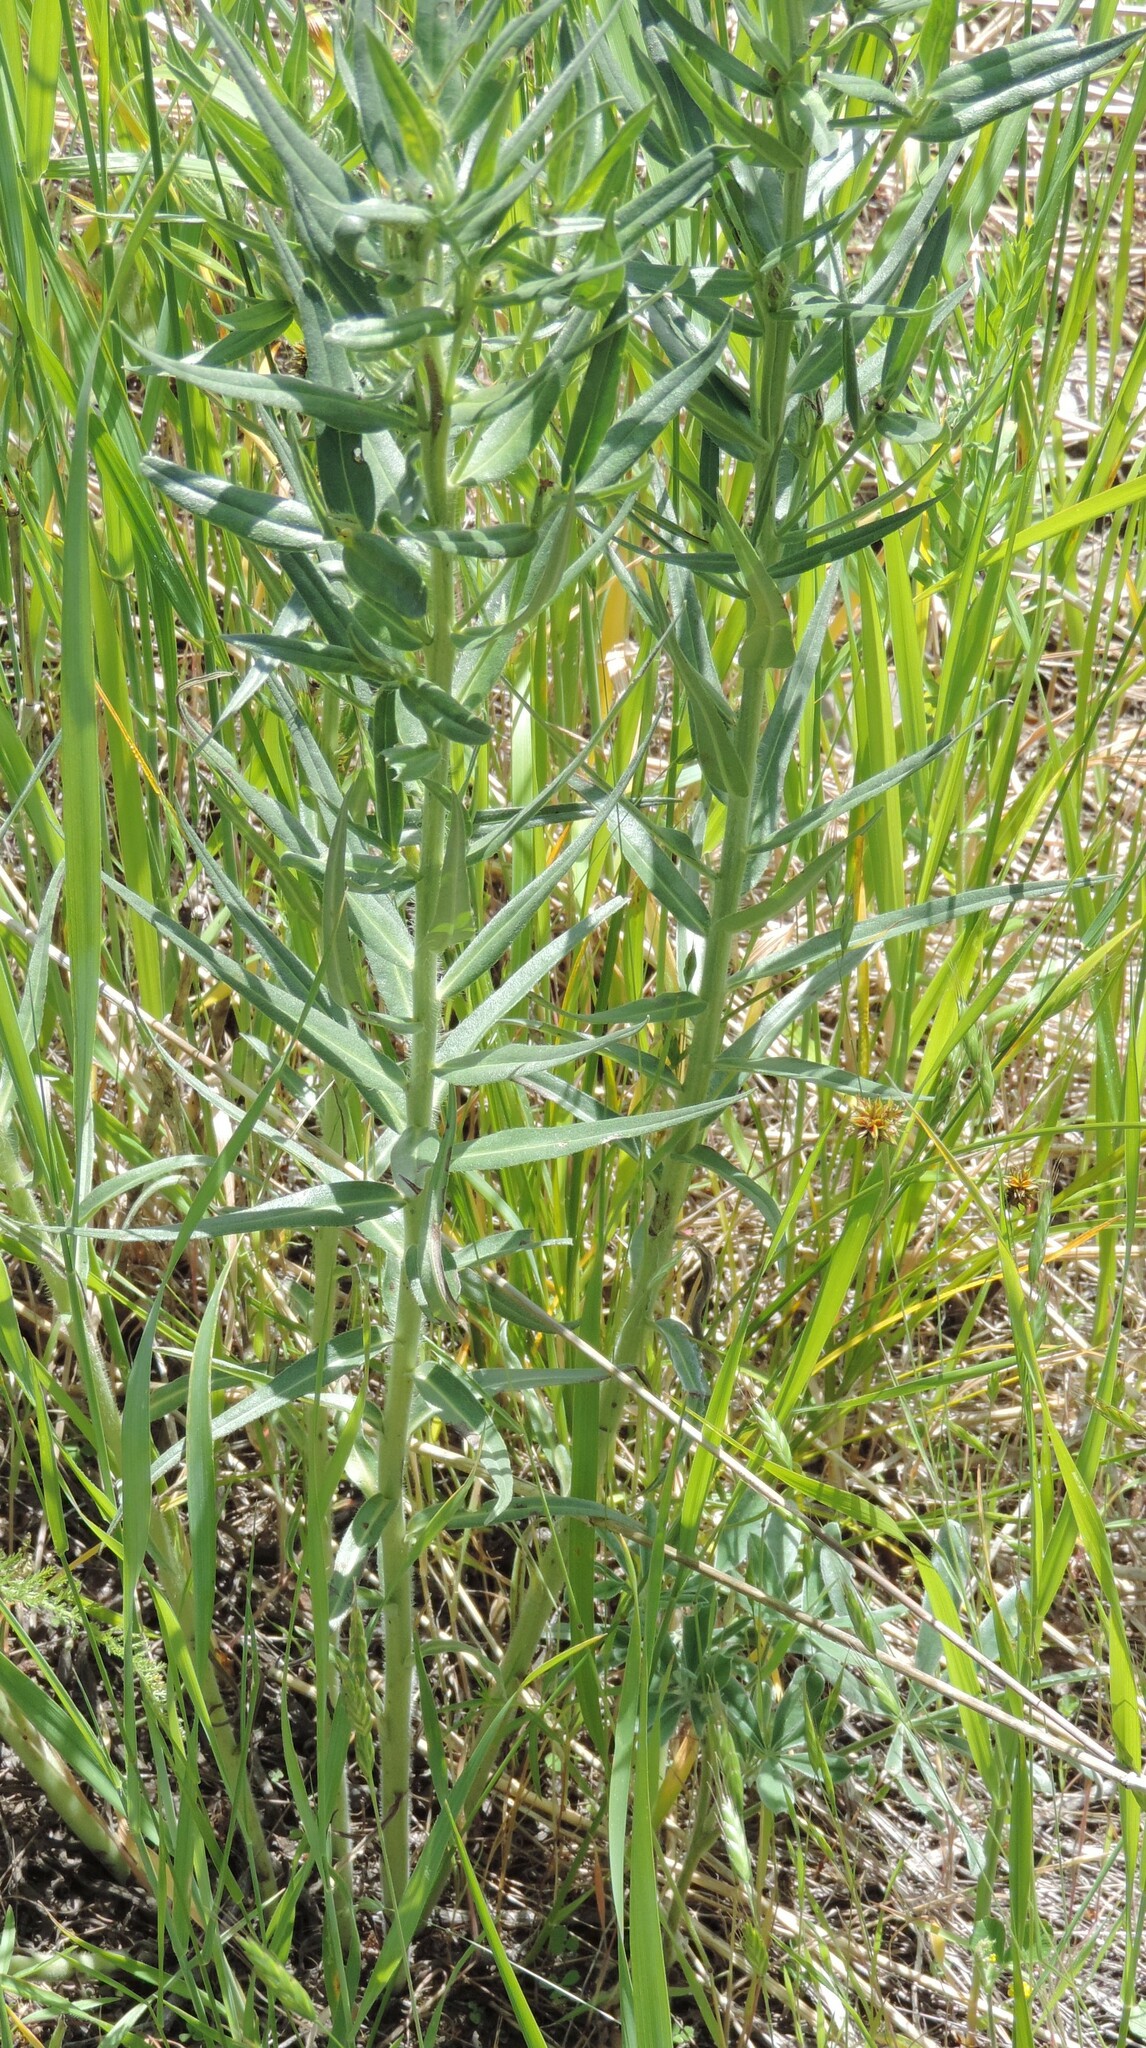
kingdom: Plantae
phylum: Tracheophyta
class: Magnoliopsida
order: Boraginales
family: Boraginaceae
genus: Lithospermum
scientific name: Lithospermum ruderale
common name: Western gromwell
